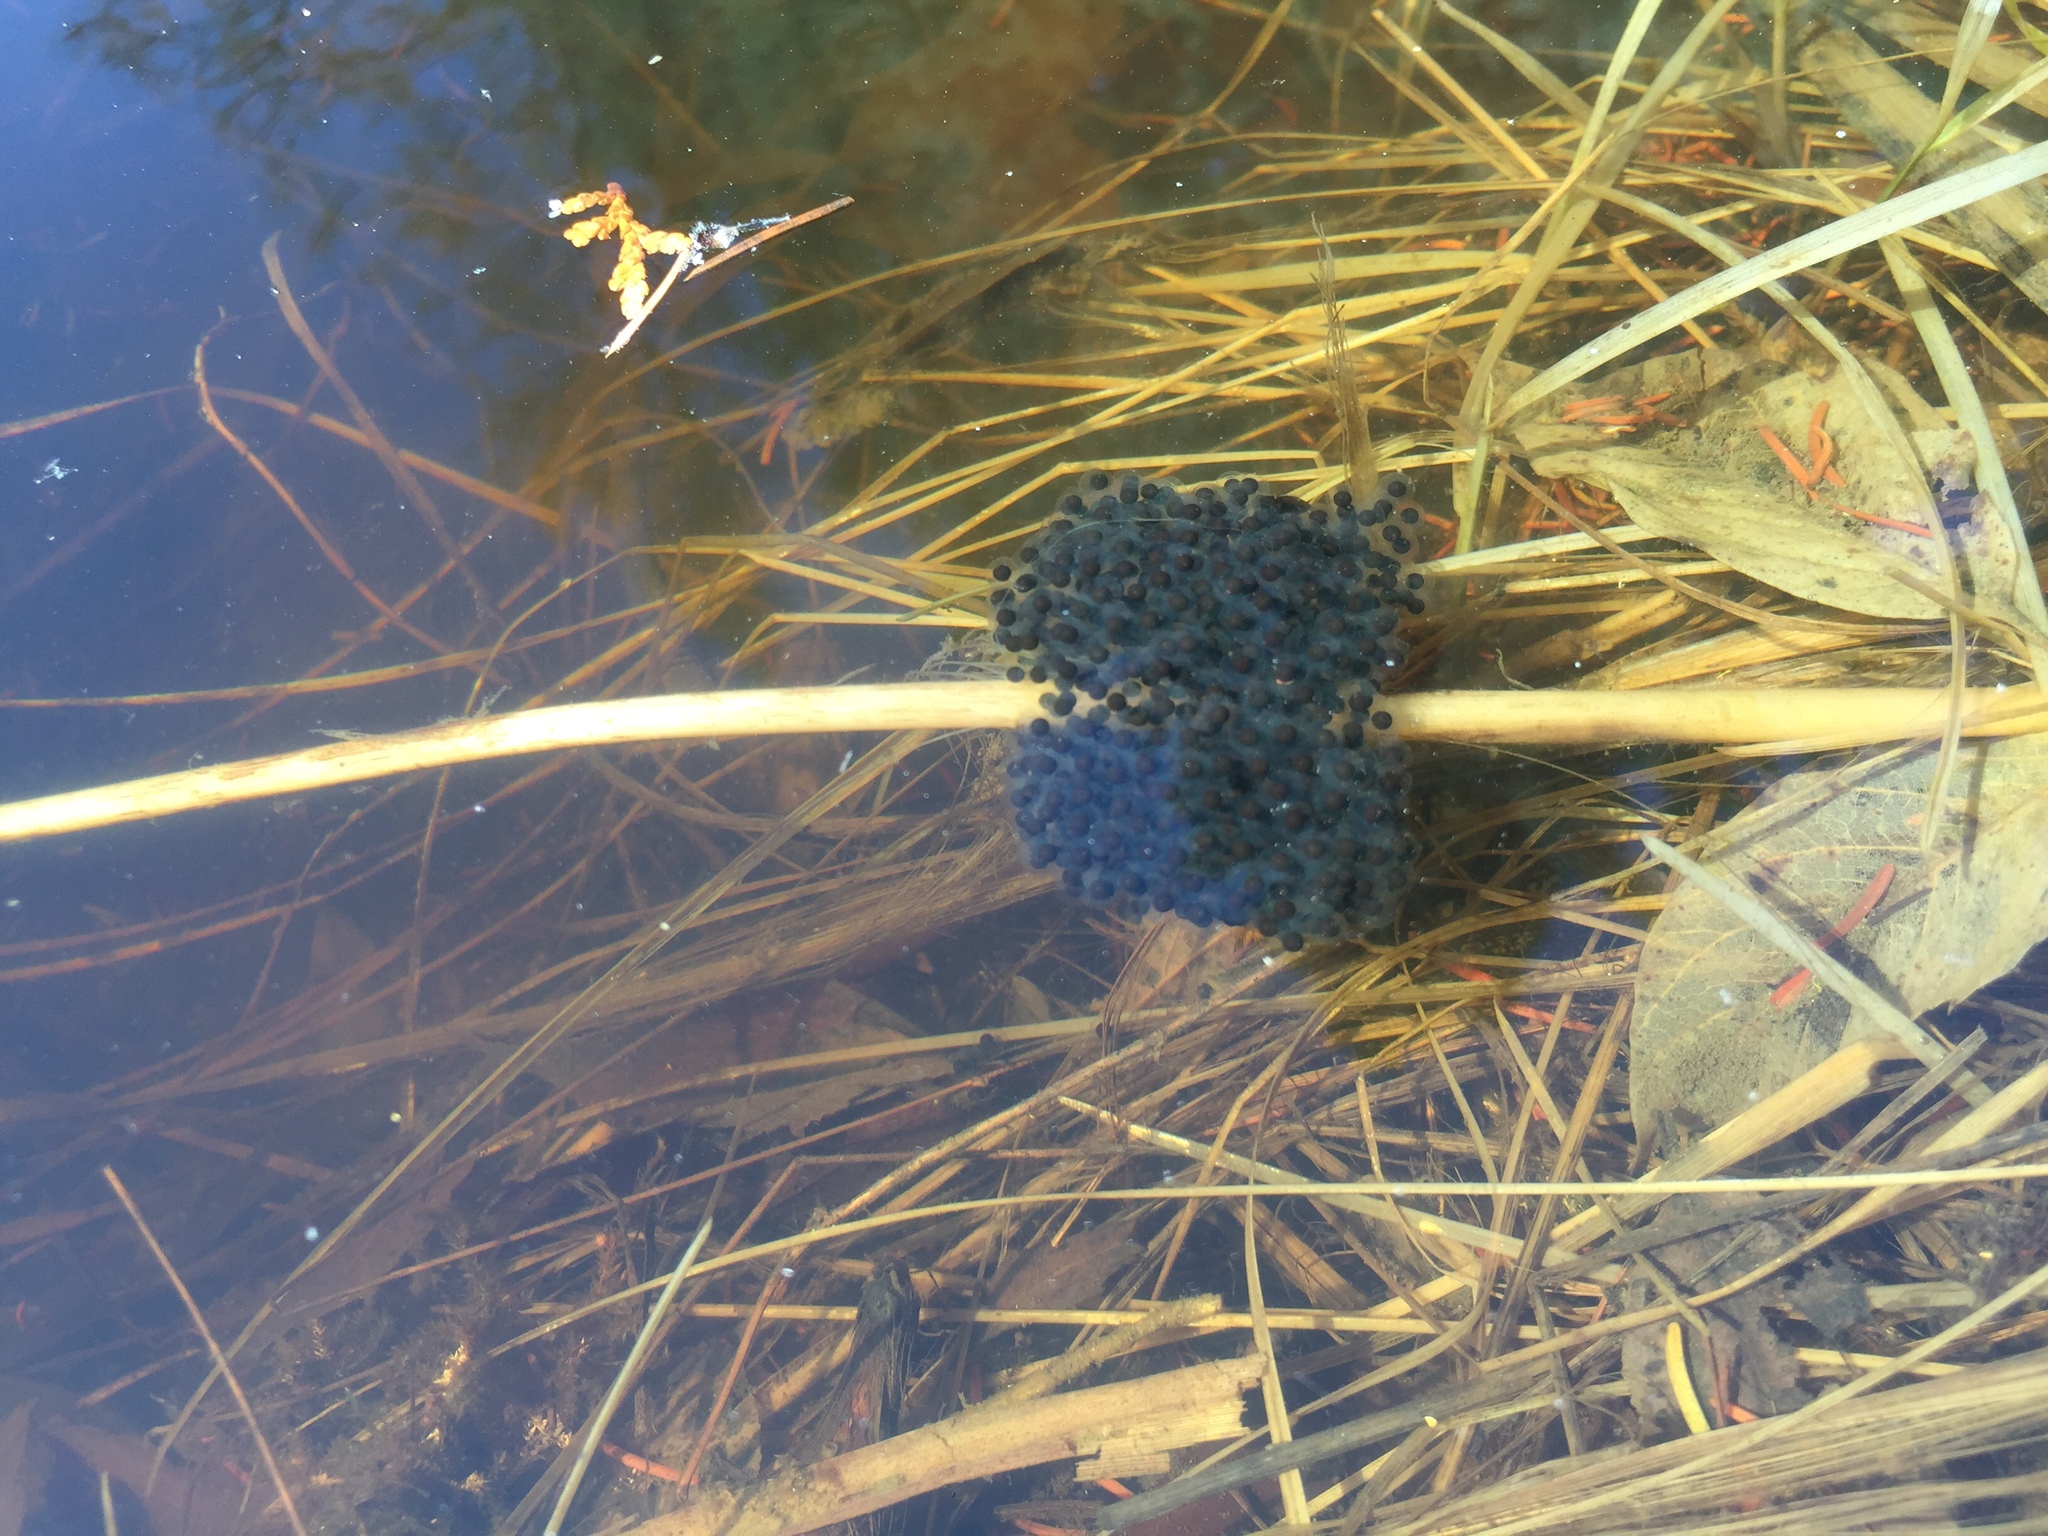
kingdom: Animalia
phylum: Chordata
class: Amphibia
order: Anura
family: Ranidae
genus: Lithobates
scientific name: Lithobates sylvaticus
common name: Wood frog
